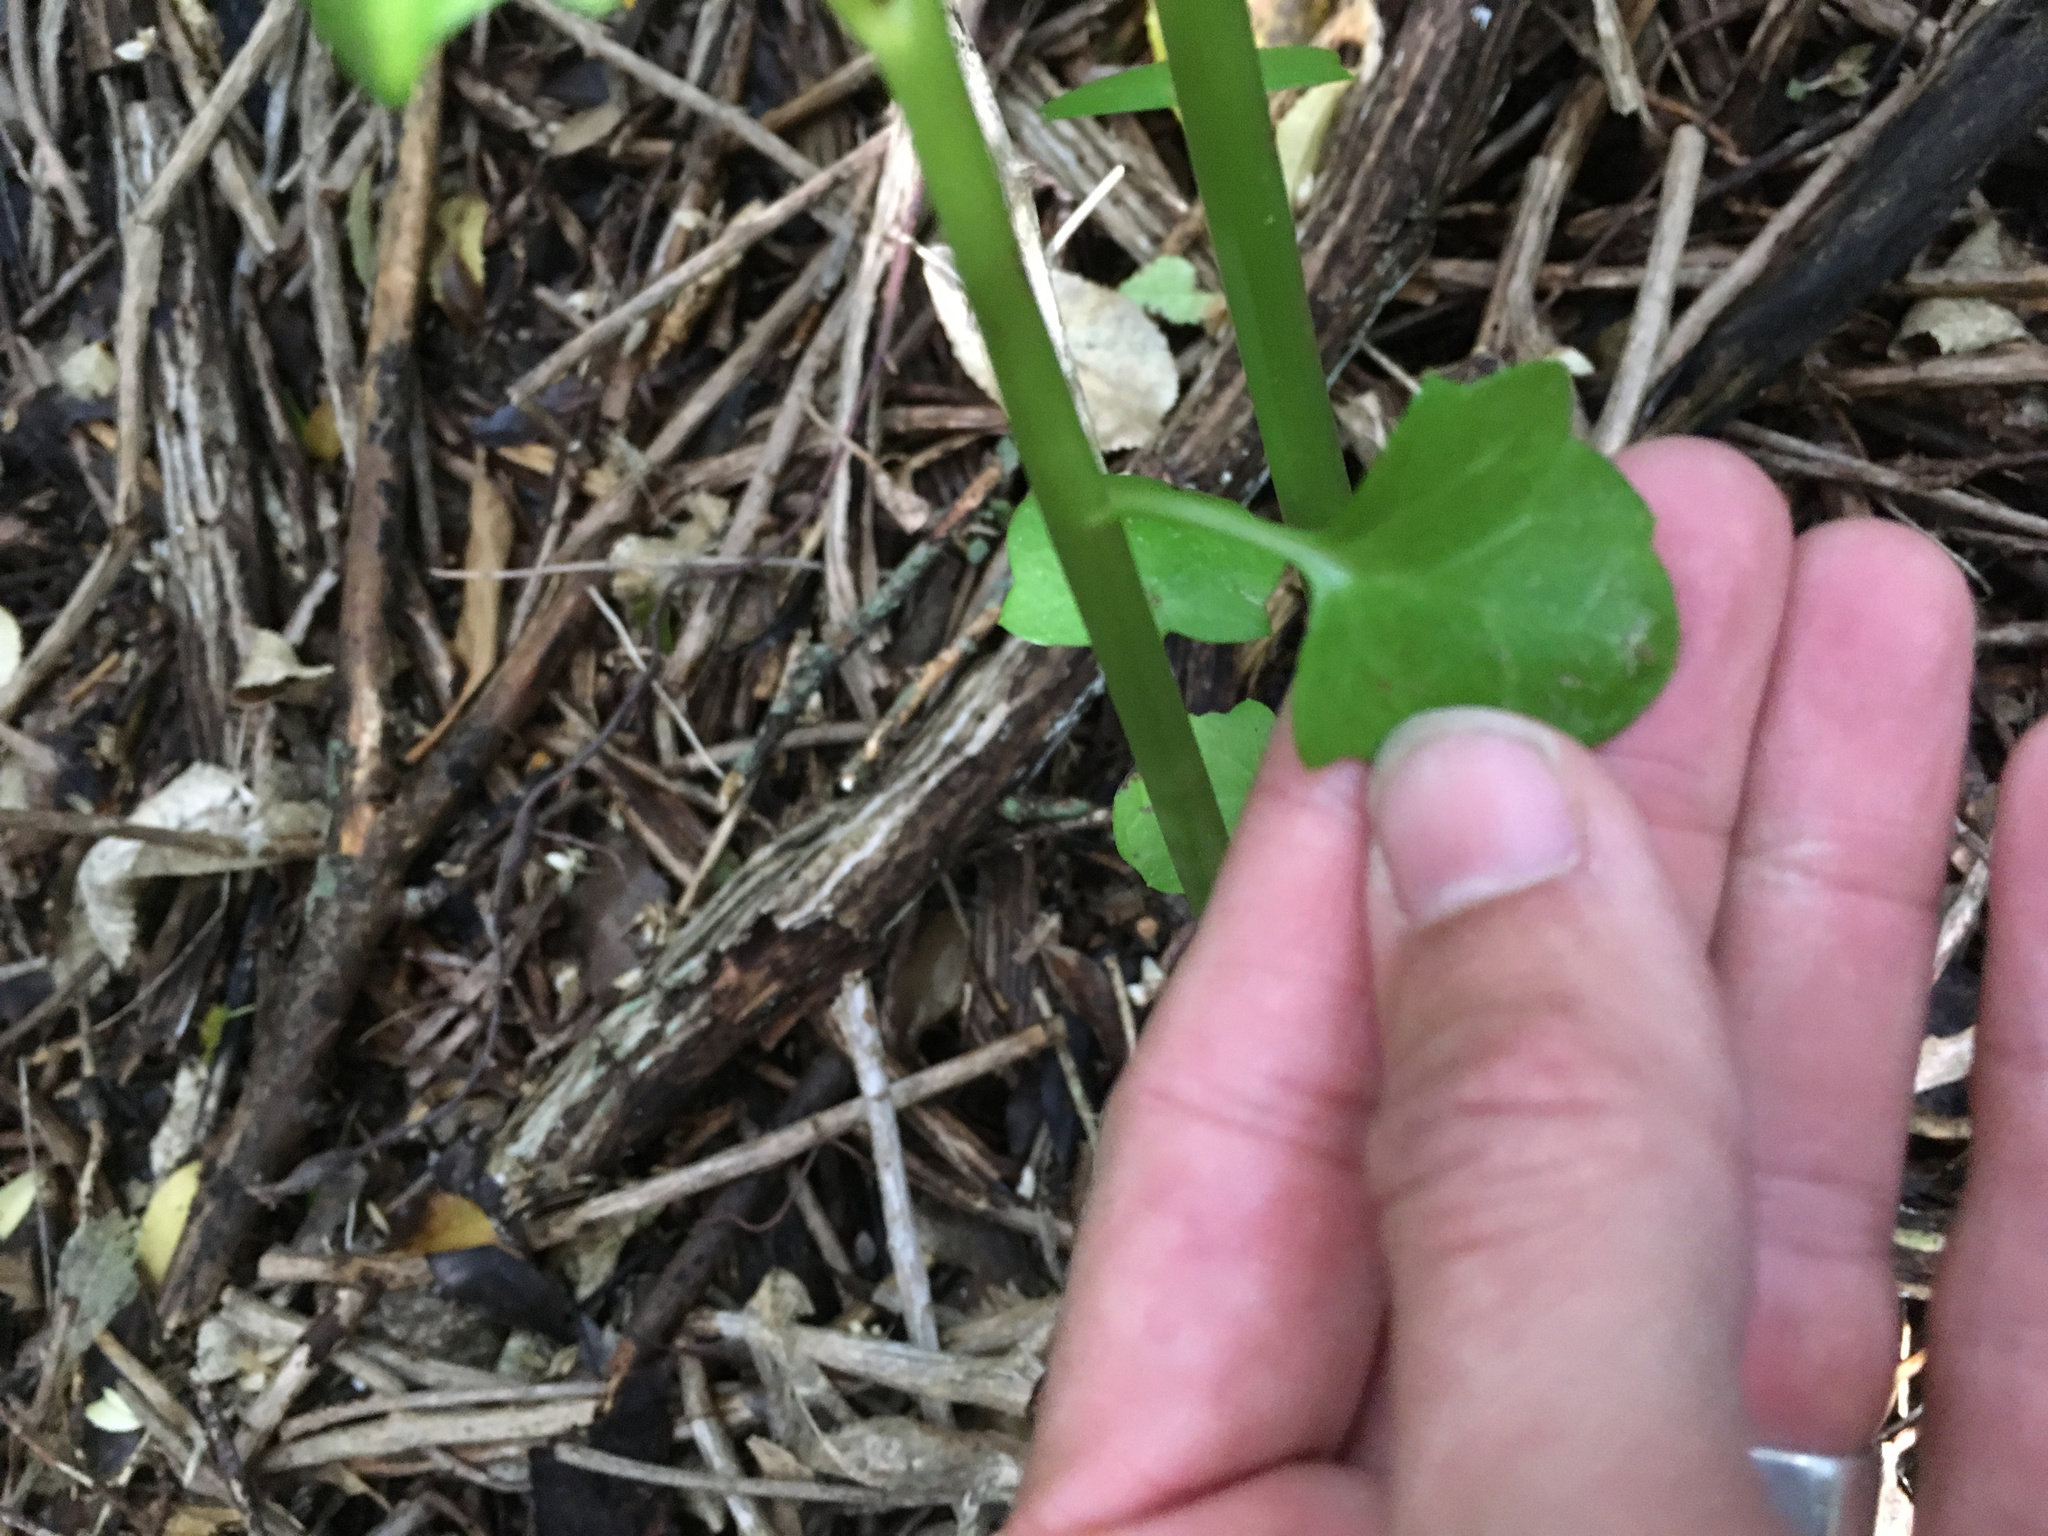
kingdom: Plantae
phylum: Tracheophyta
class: Magnoliopsida
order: Asterales
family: Asteraceae
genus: Senecio
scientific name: Senecio angulatus
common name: Climbing groundsel
